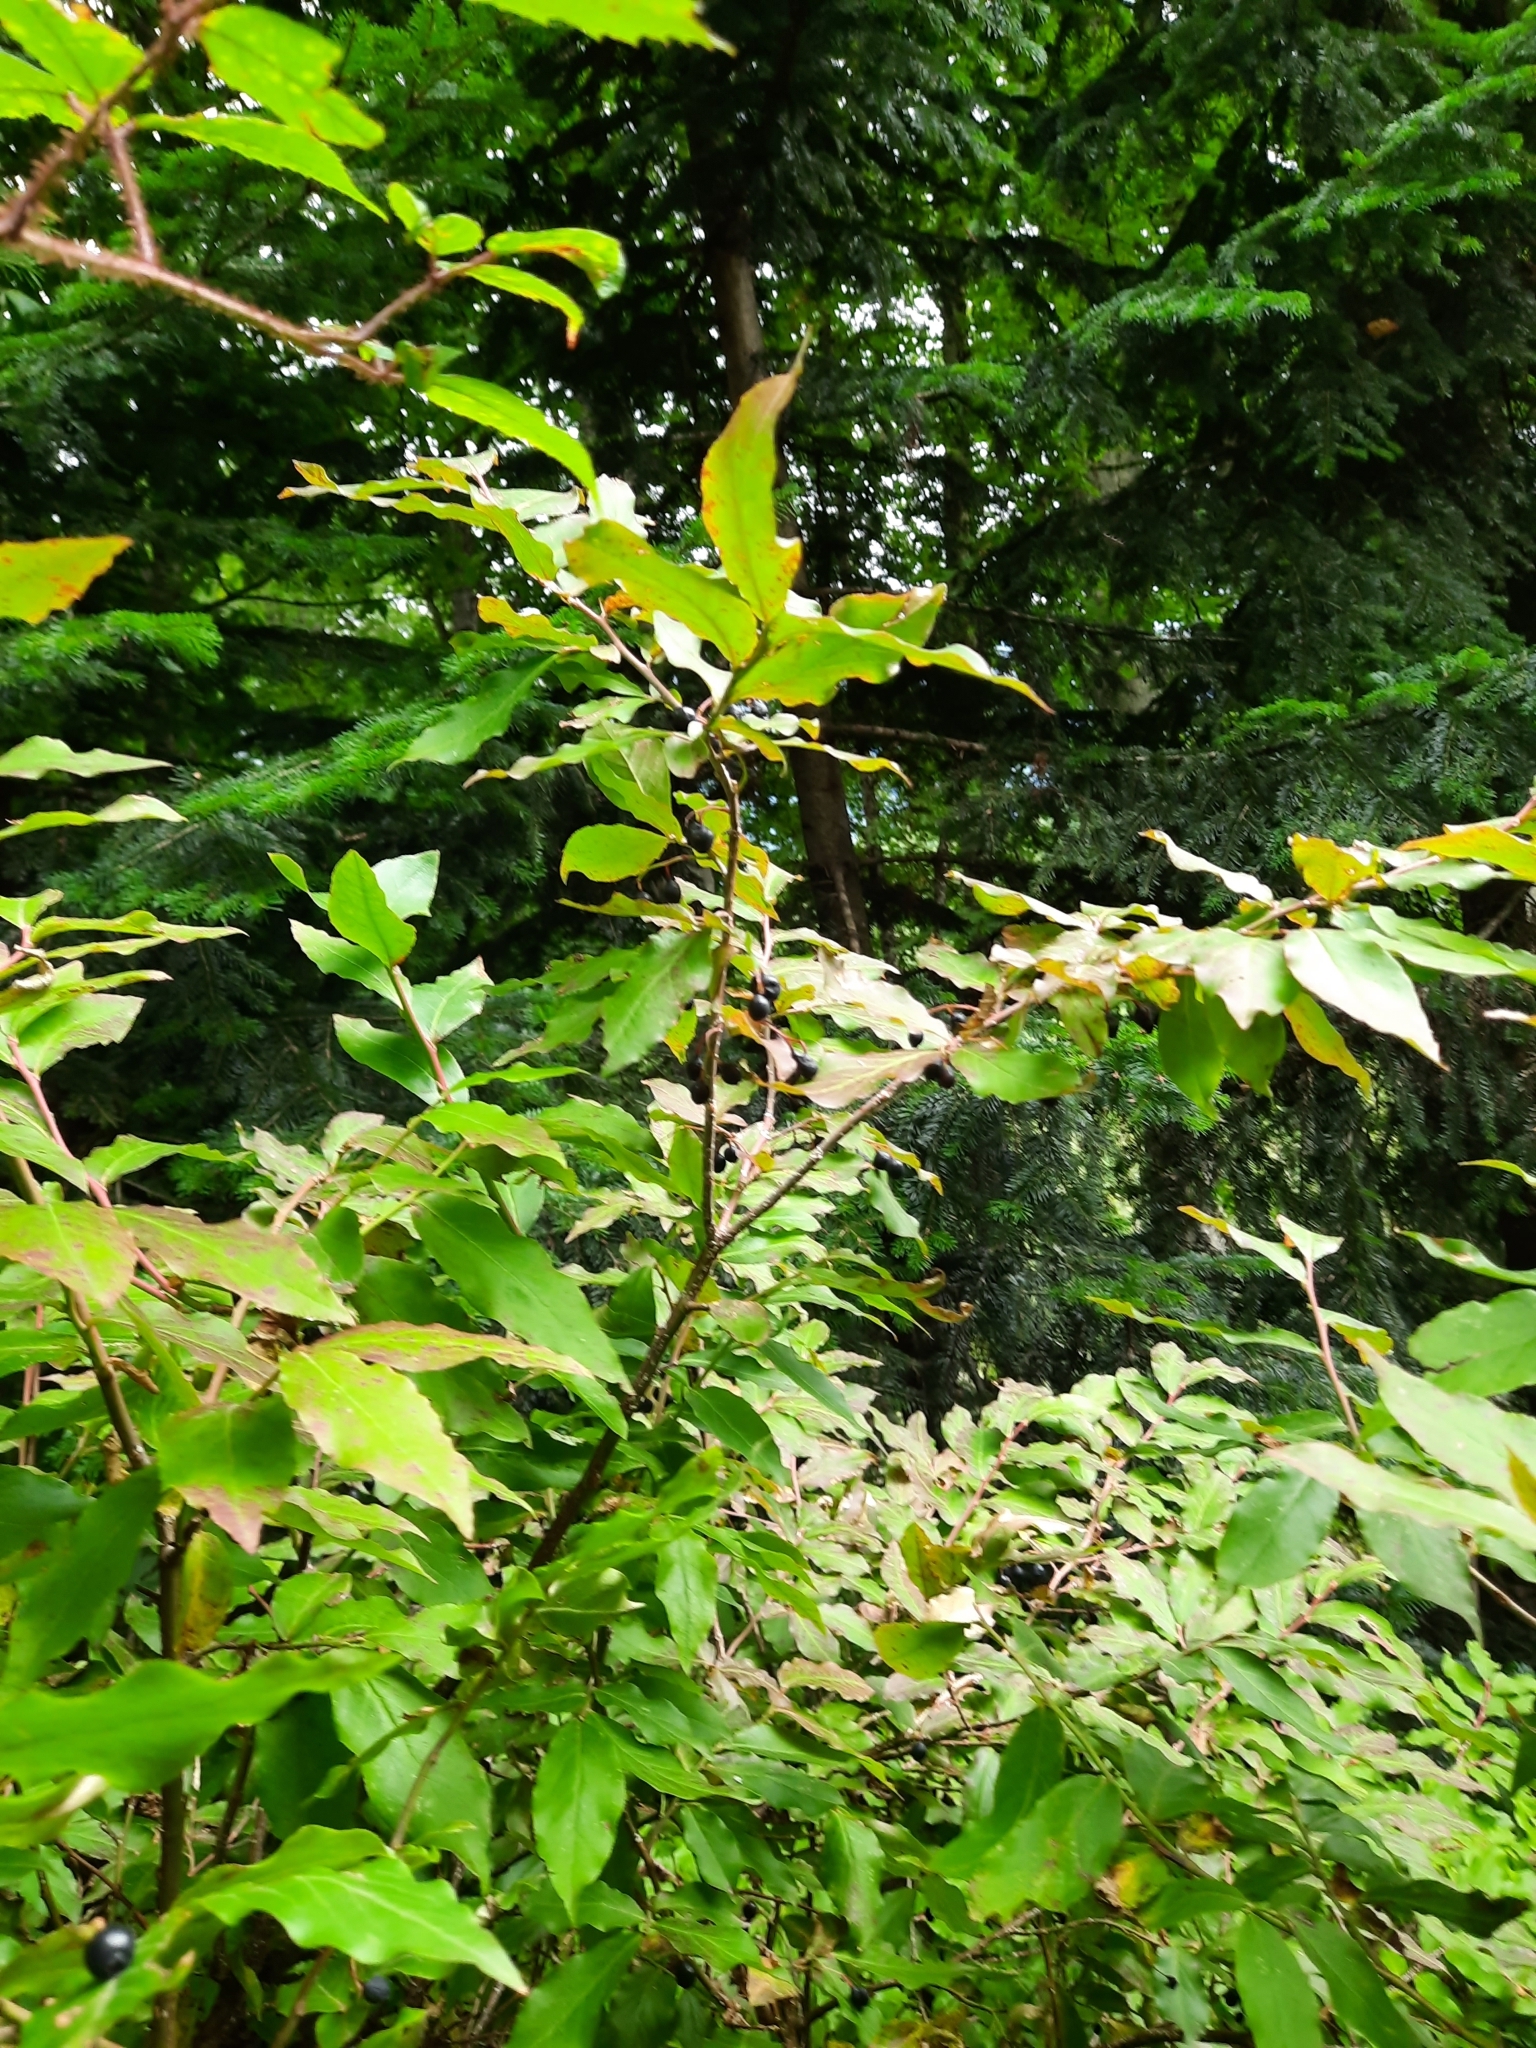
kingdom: Plantae
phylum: Tracheophyta
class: Magnoliopsida
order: Ericales
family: Ericaceae
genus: Vaccinium
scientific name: Vaccinium arctostaphylos
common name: Caucasian whortleberry
